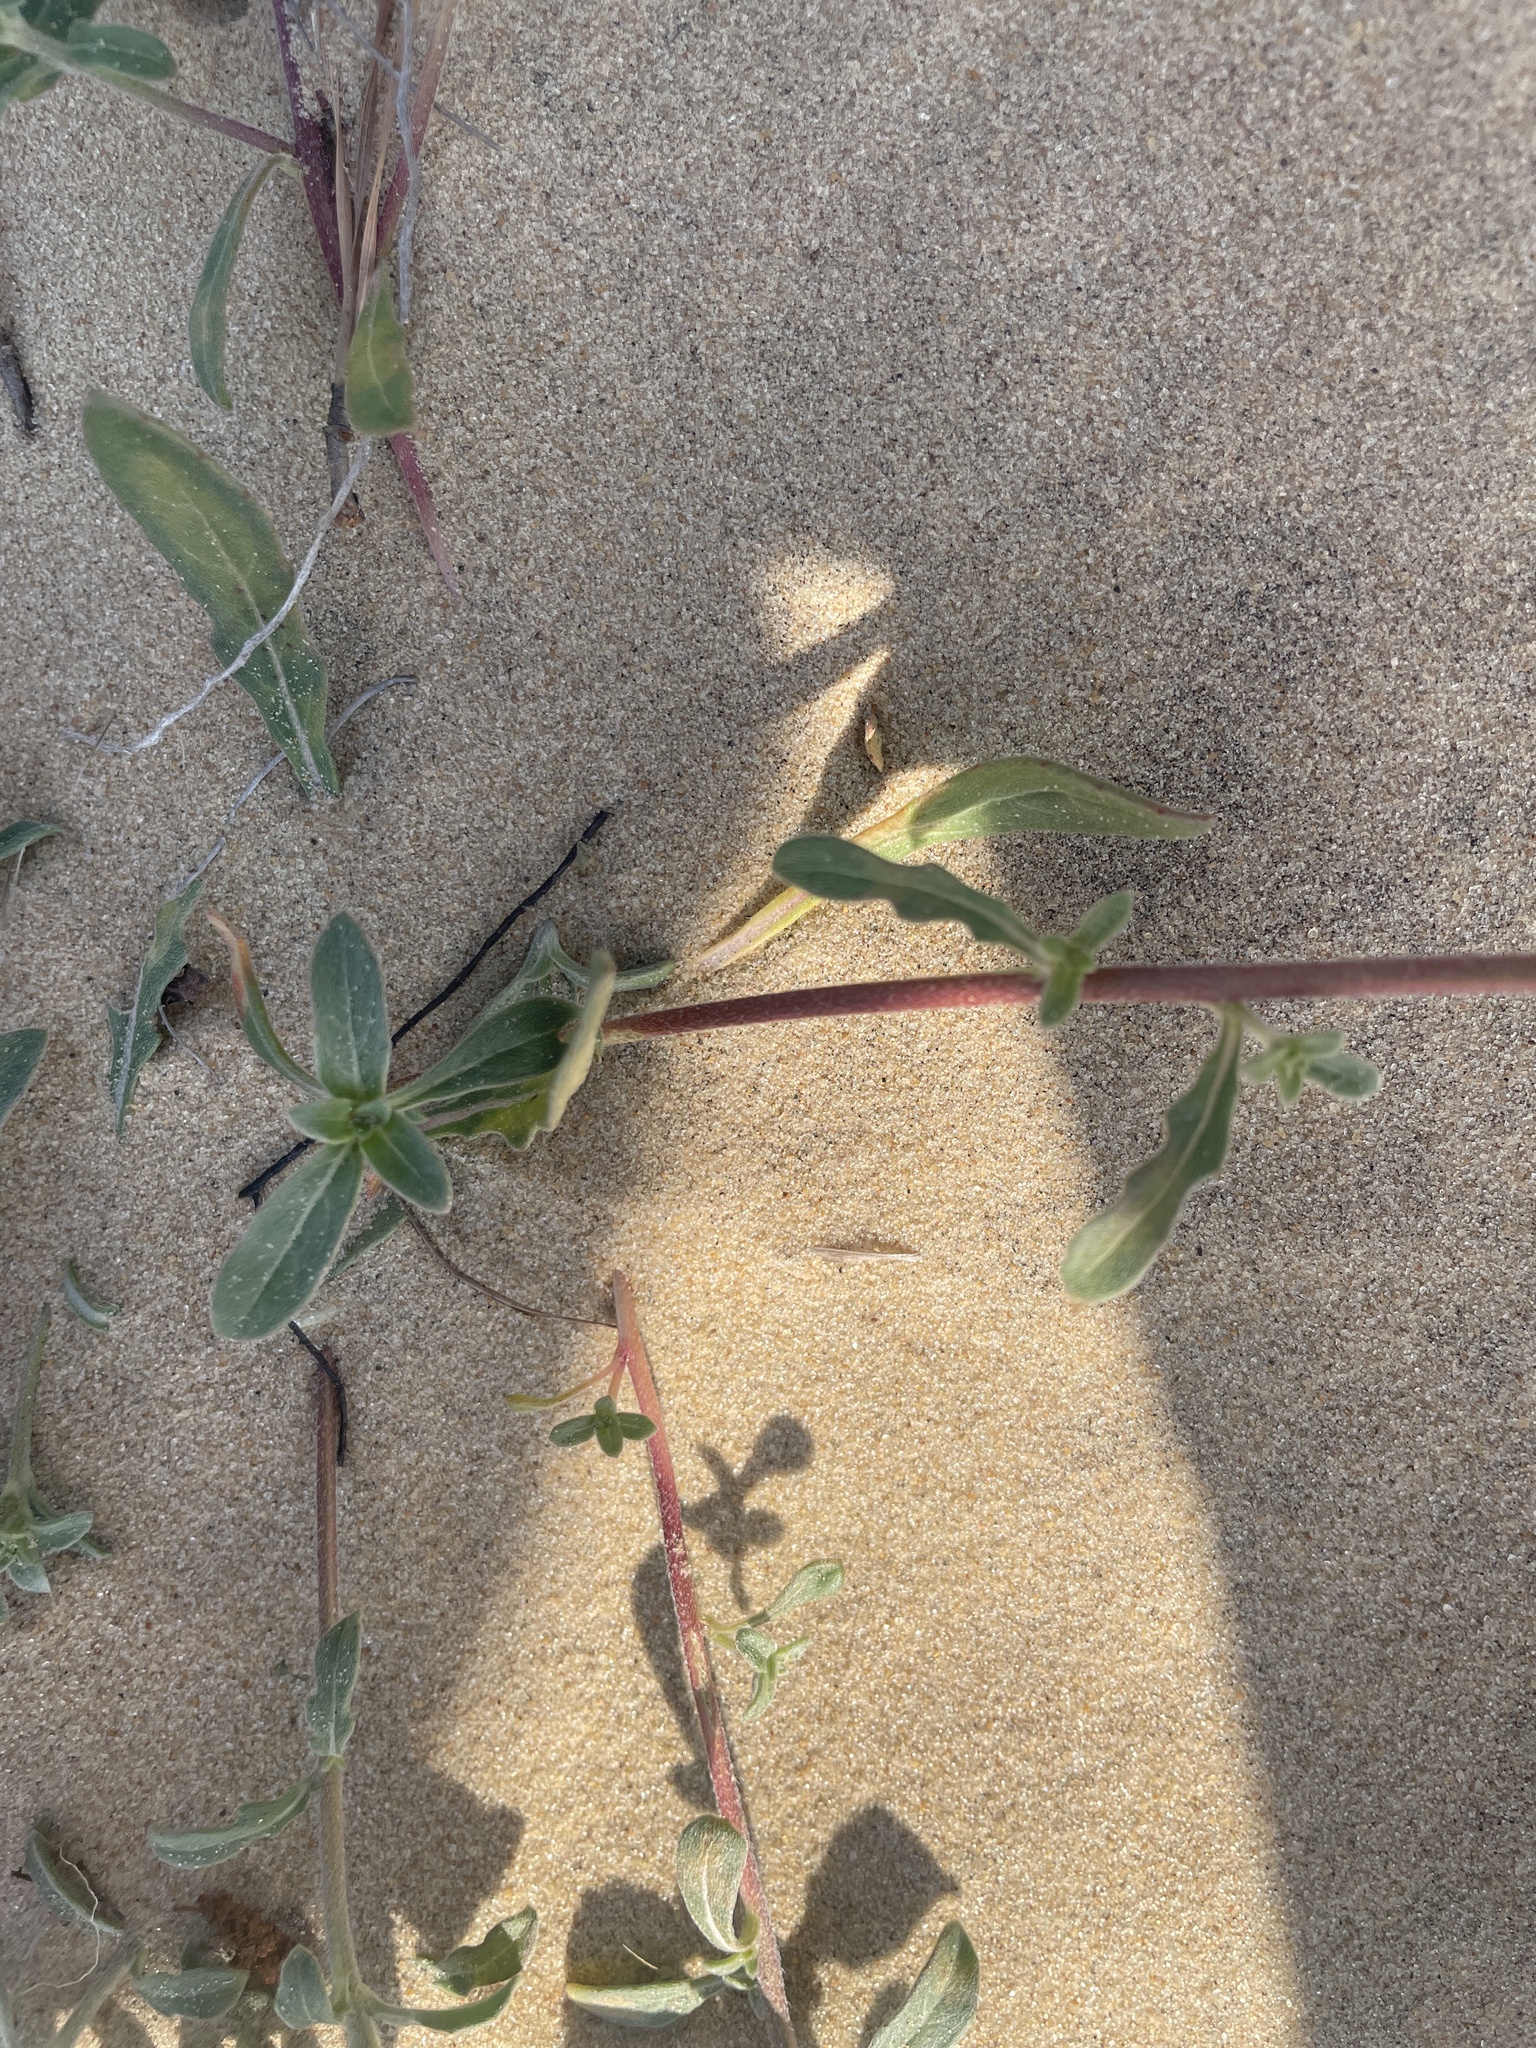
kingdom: Plantae
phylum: Tracheophyta
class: Magnoliopsida
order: Myrtales
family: Onagraceae
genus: Oenothera
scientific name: Oenothera humifusa
